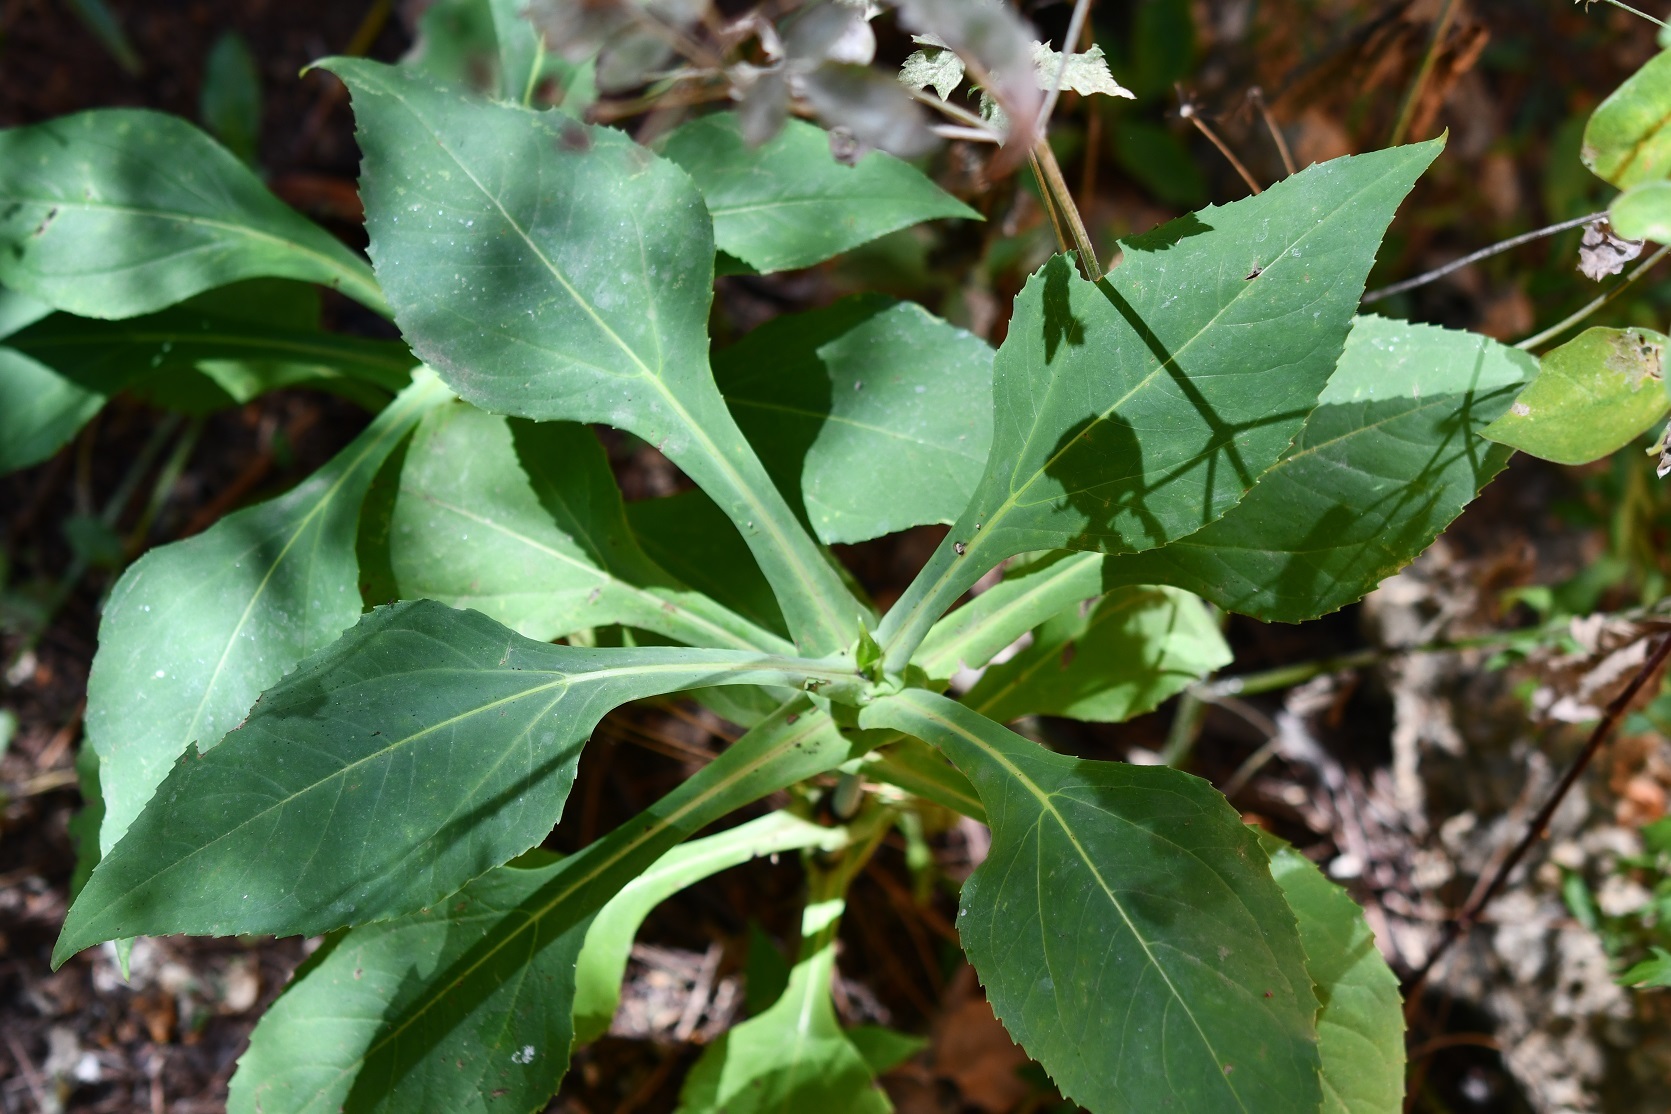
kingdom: Plantae
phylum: Tracheophyta
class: Magnoliopsida
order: Asterales
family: Asteraceae
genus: Desmanthodium
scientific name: Desmanthodium perfoliatum
